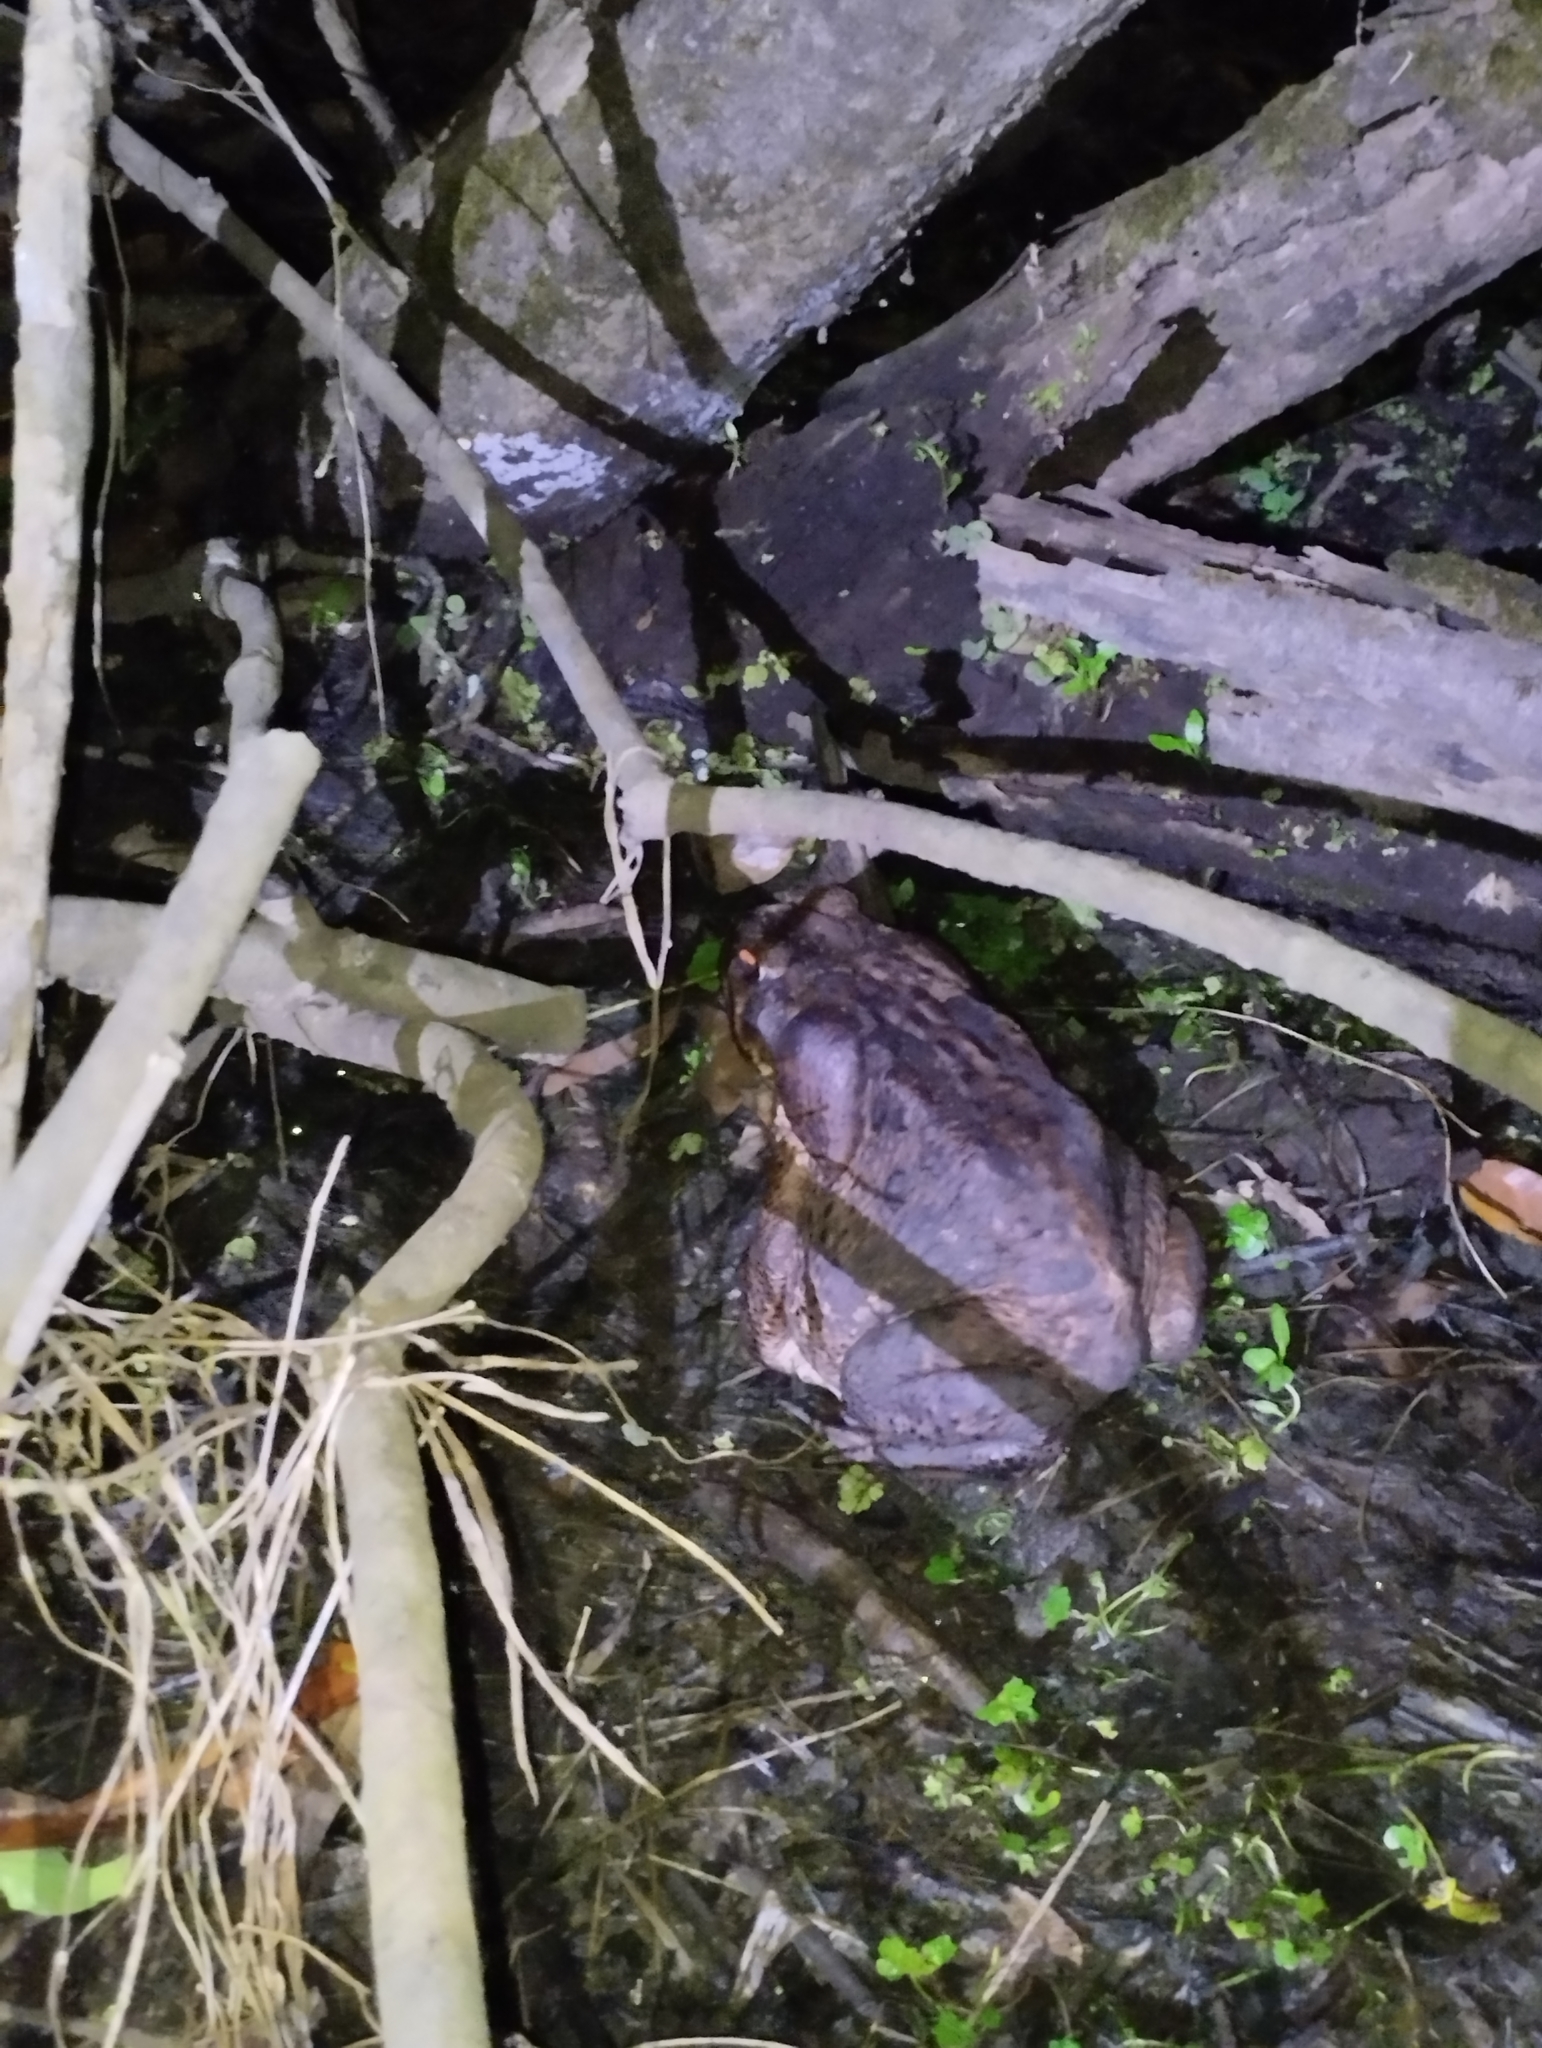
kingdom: Animalia
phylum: Chordata
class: Amphibia
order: Anura
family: Bufonidae
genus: Rhinella
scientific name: Rhinella marina
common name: Cane toad
